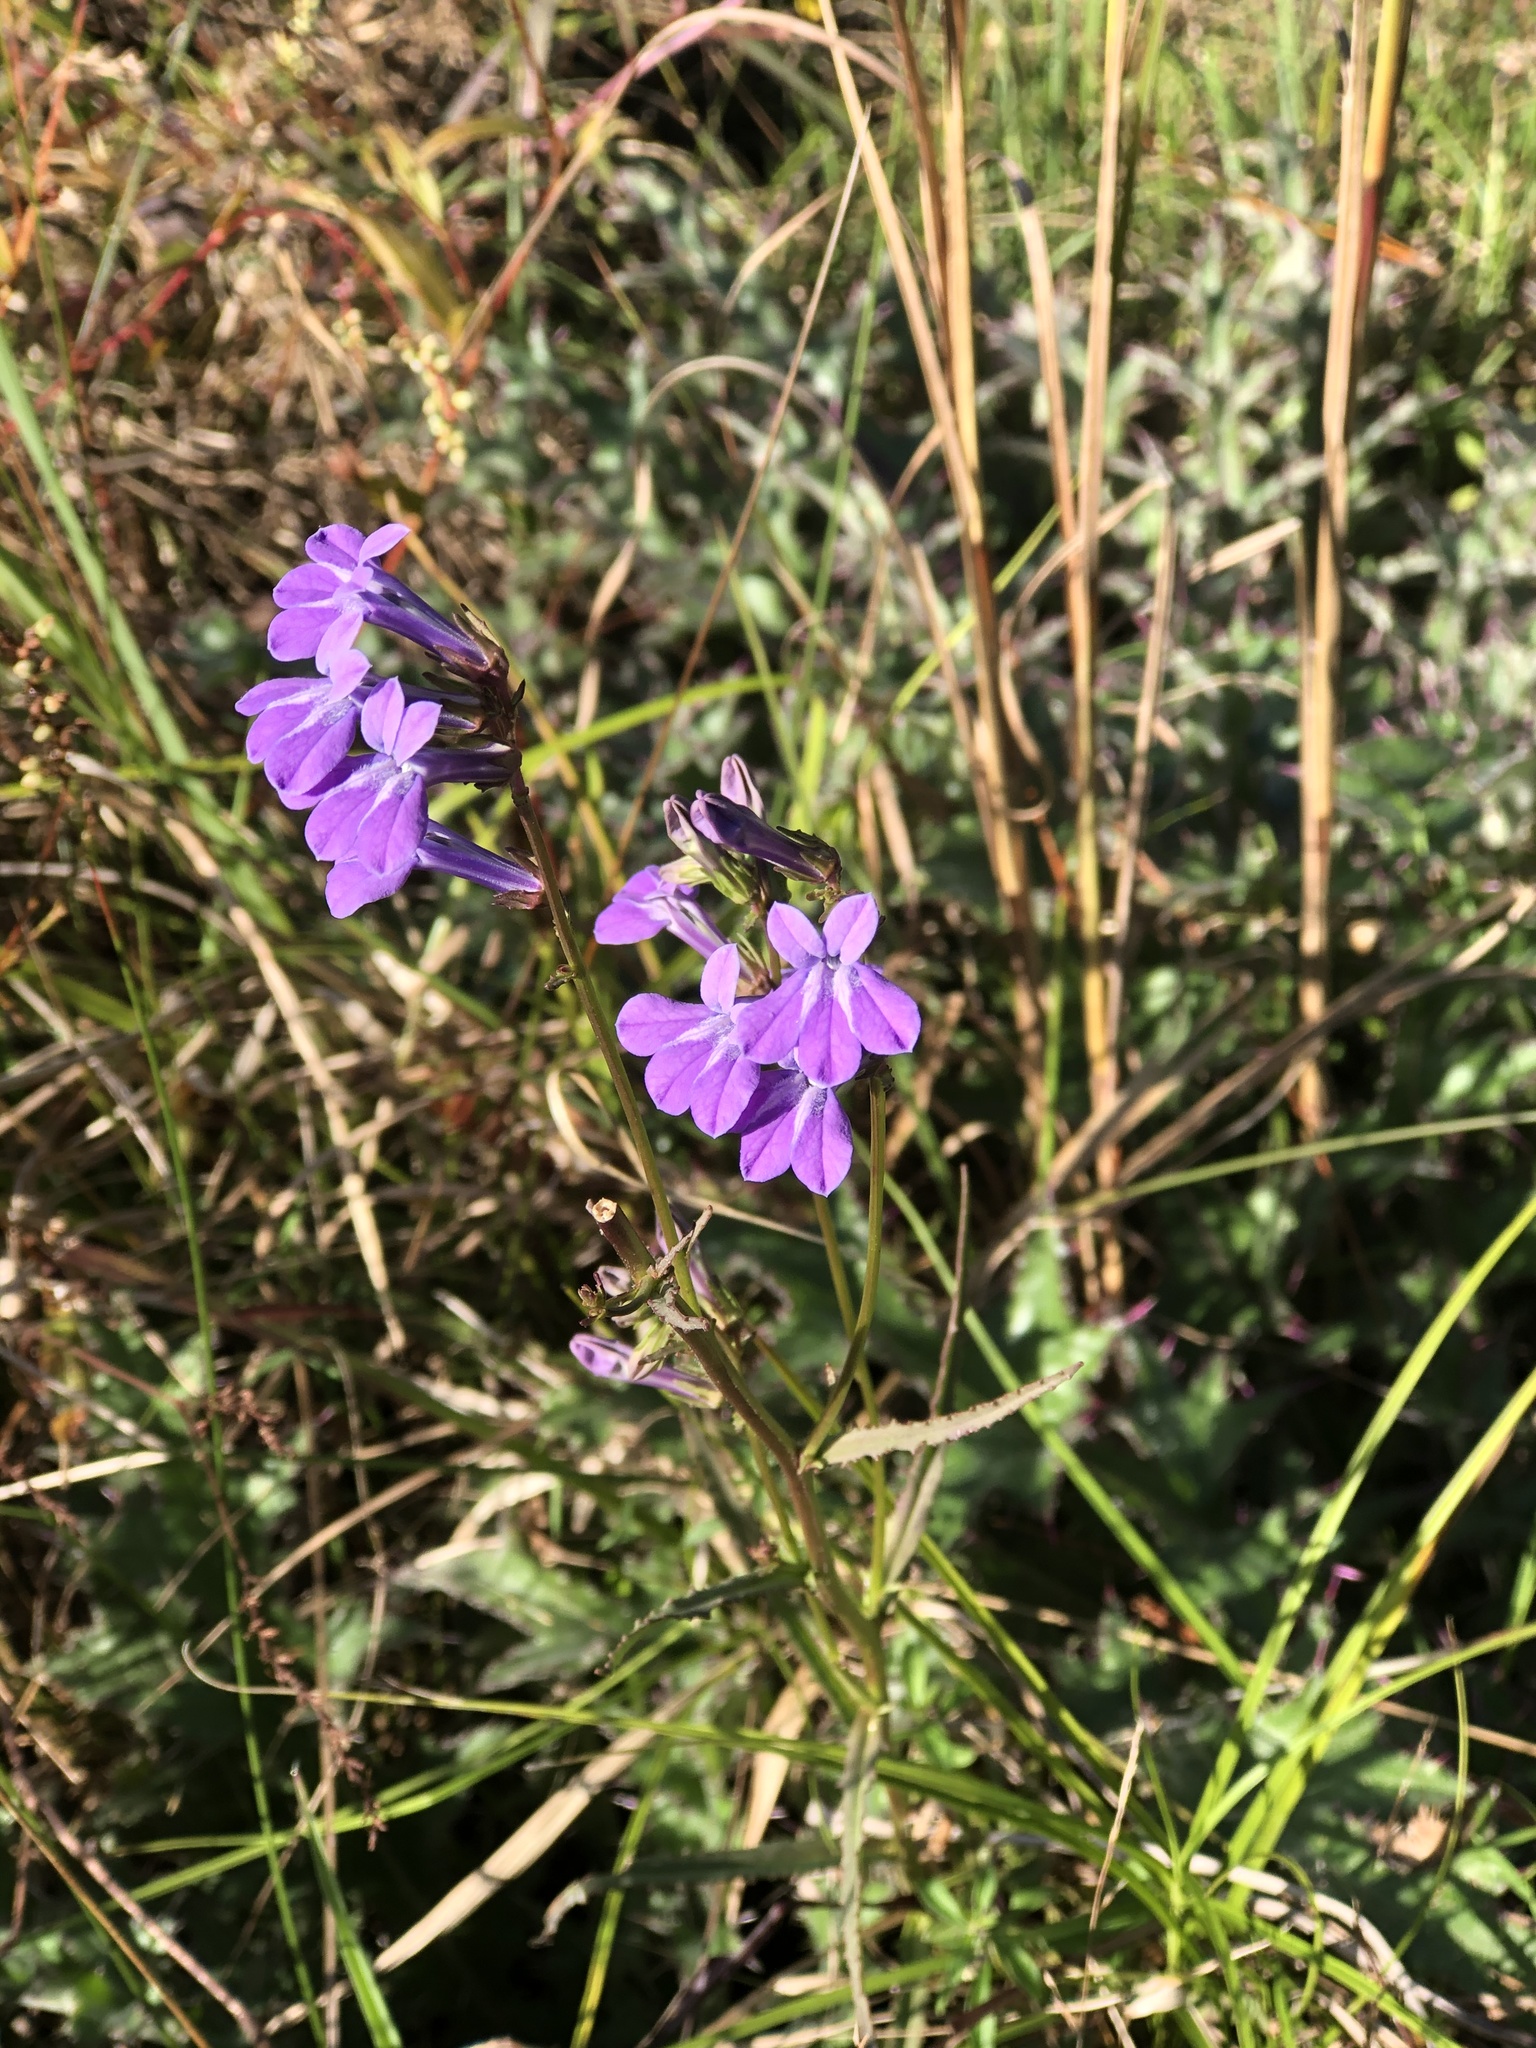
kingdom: Plantae
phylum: Tracheophyta
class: Magnoliopsida
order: Asterales
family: Campanulaceae
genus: Lobelia
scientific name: Lobelia glandulosa
